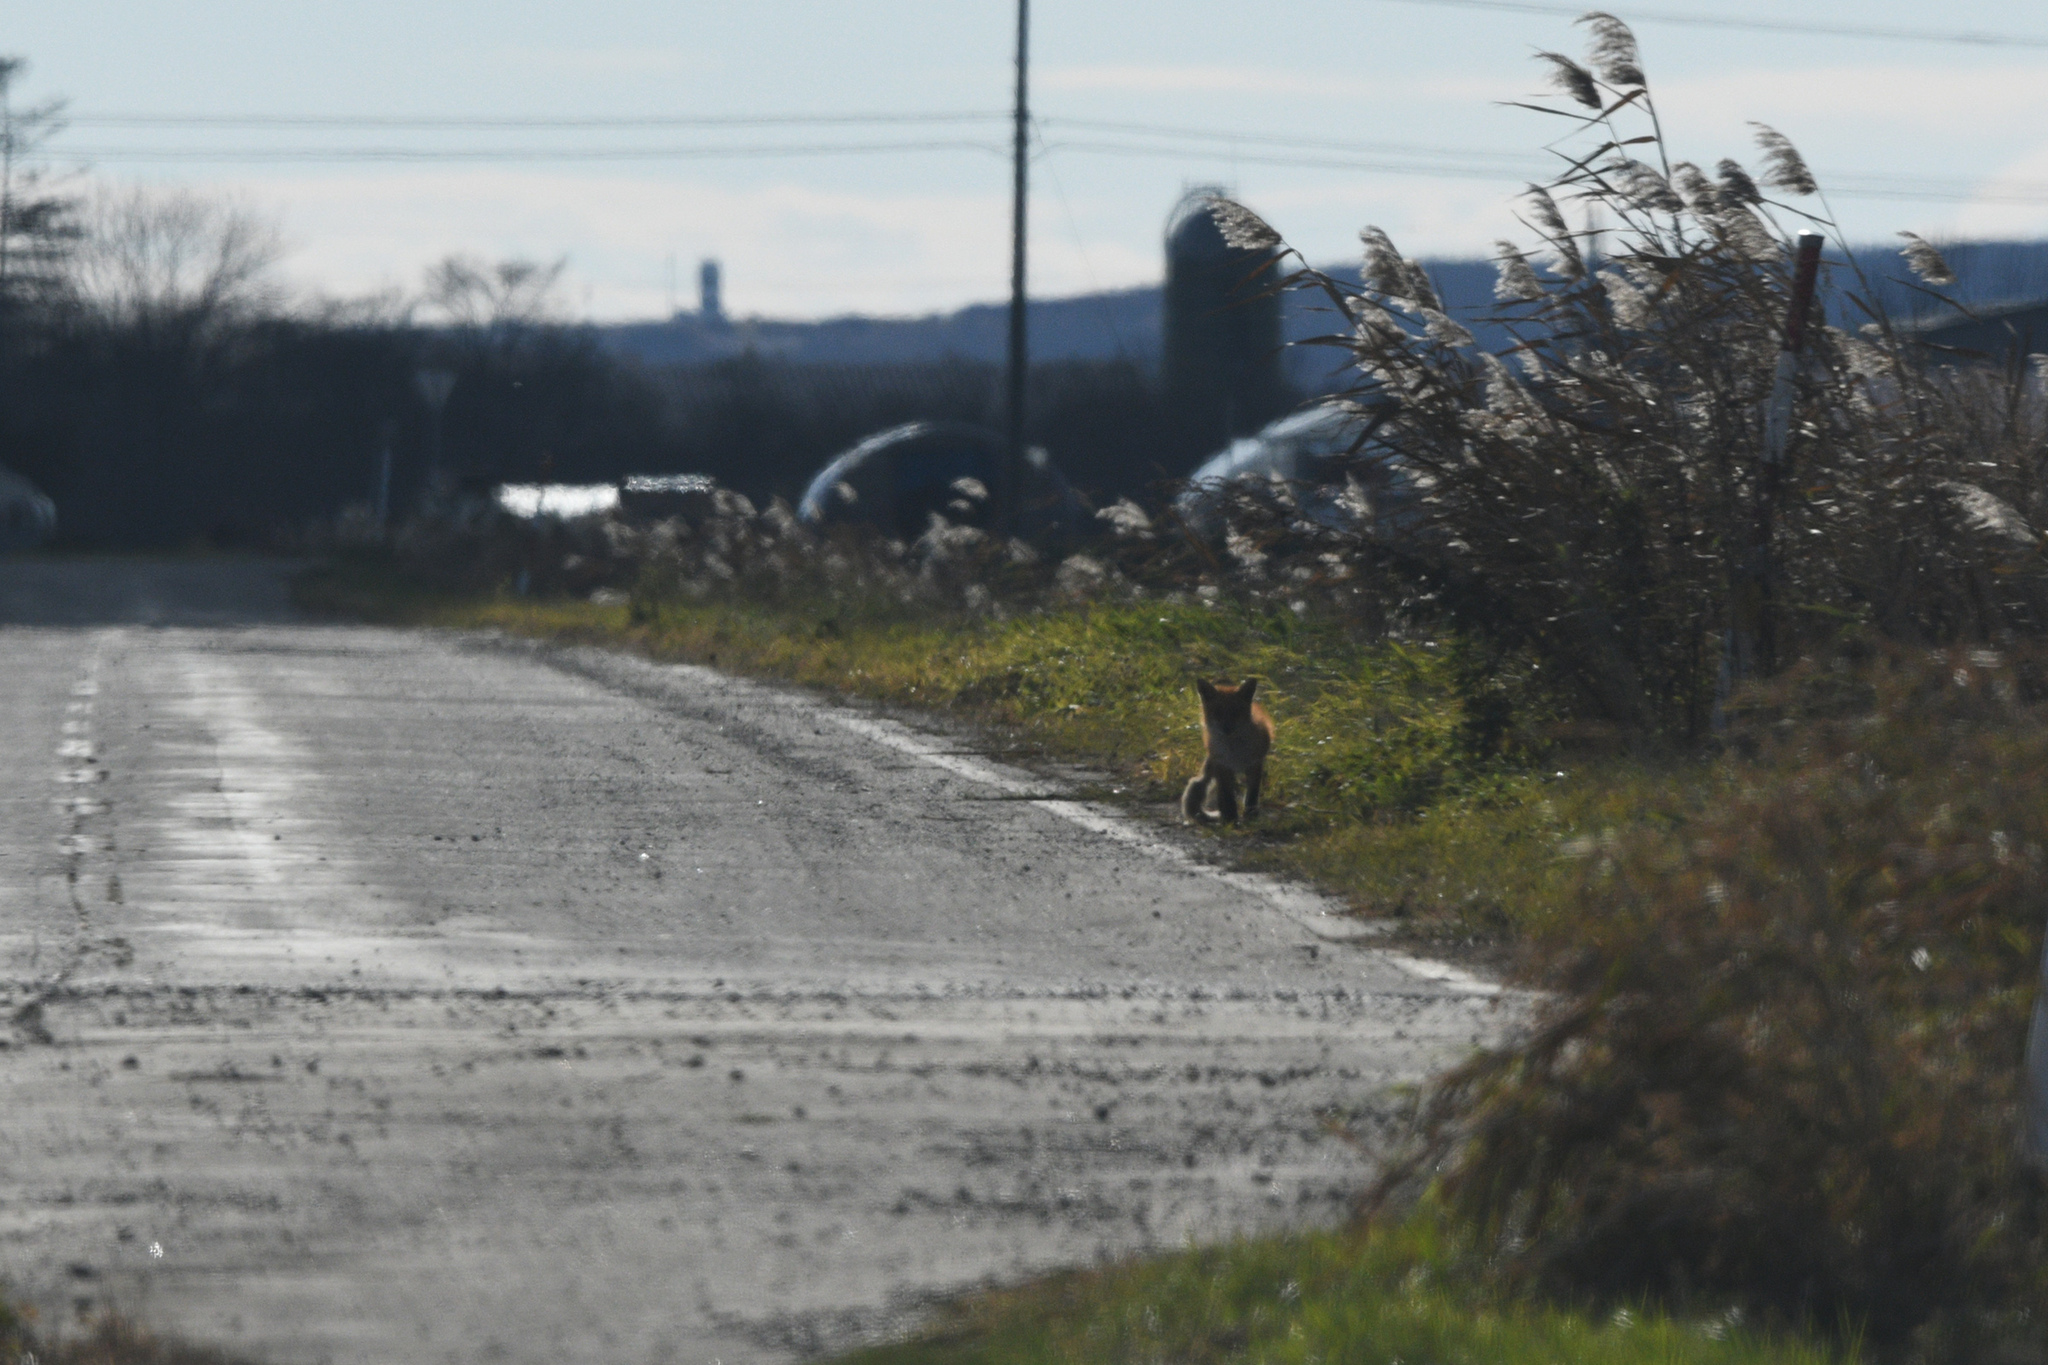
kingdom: Animalia
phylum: Chordata
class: Mammalia
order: Carnivora
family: Canidae
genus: Vulpes
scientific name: Vulpes vulpes
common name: Red fox
